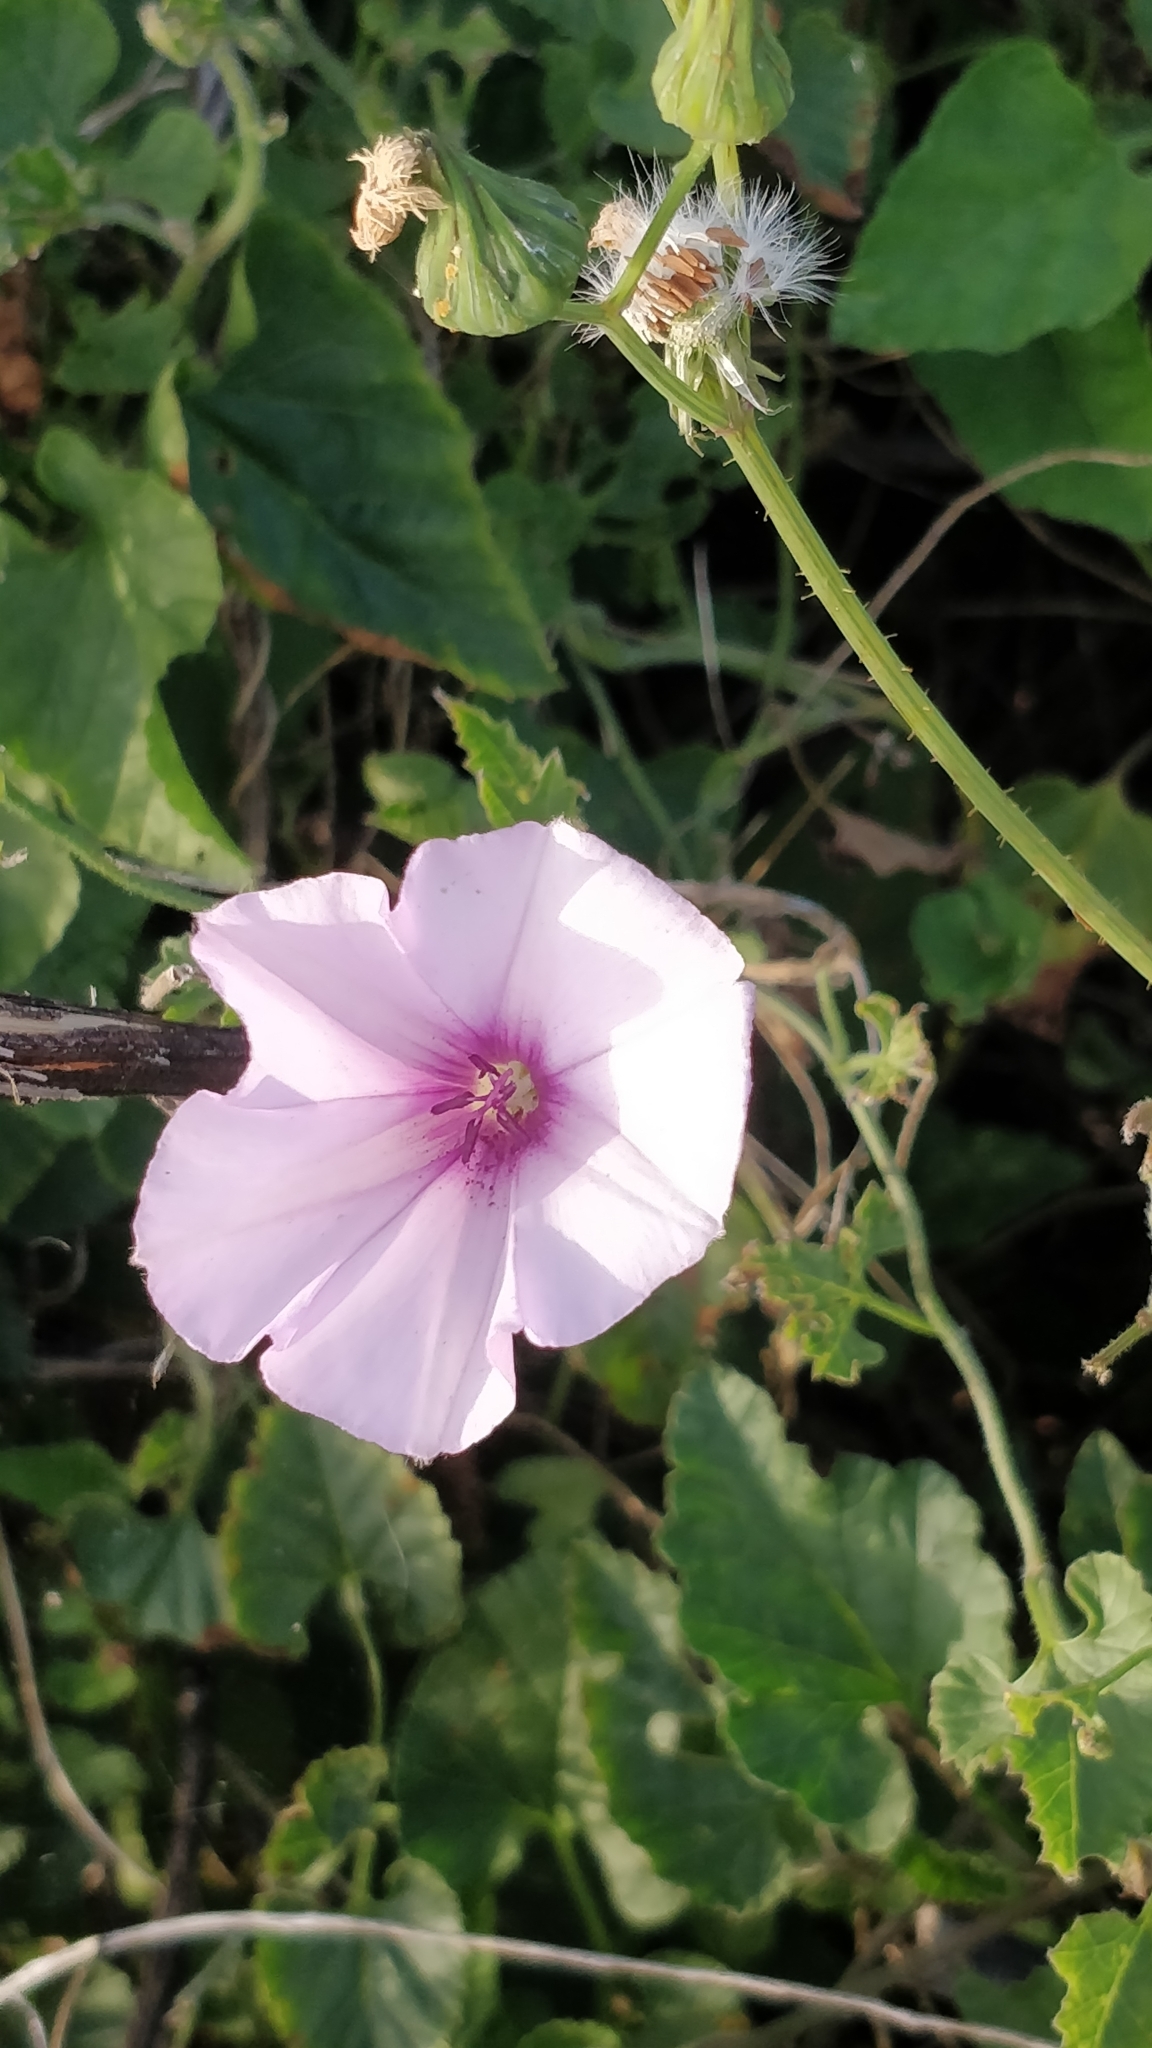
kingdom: Plantae
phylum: Tracheophyta
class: Magnoliopsida
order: Solanales
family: Convolvulaceae
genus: Convolvulus
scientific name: Convolvulus althaeoides
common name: Mallow bindweed
